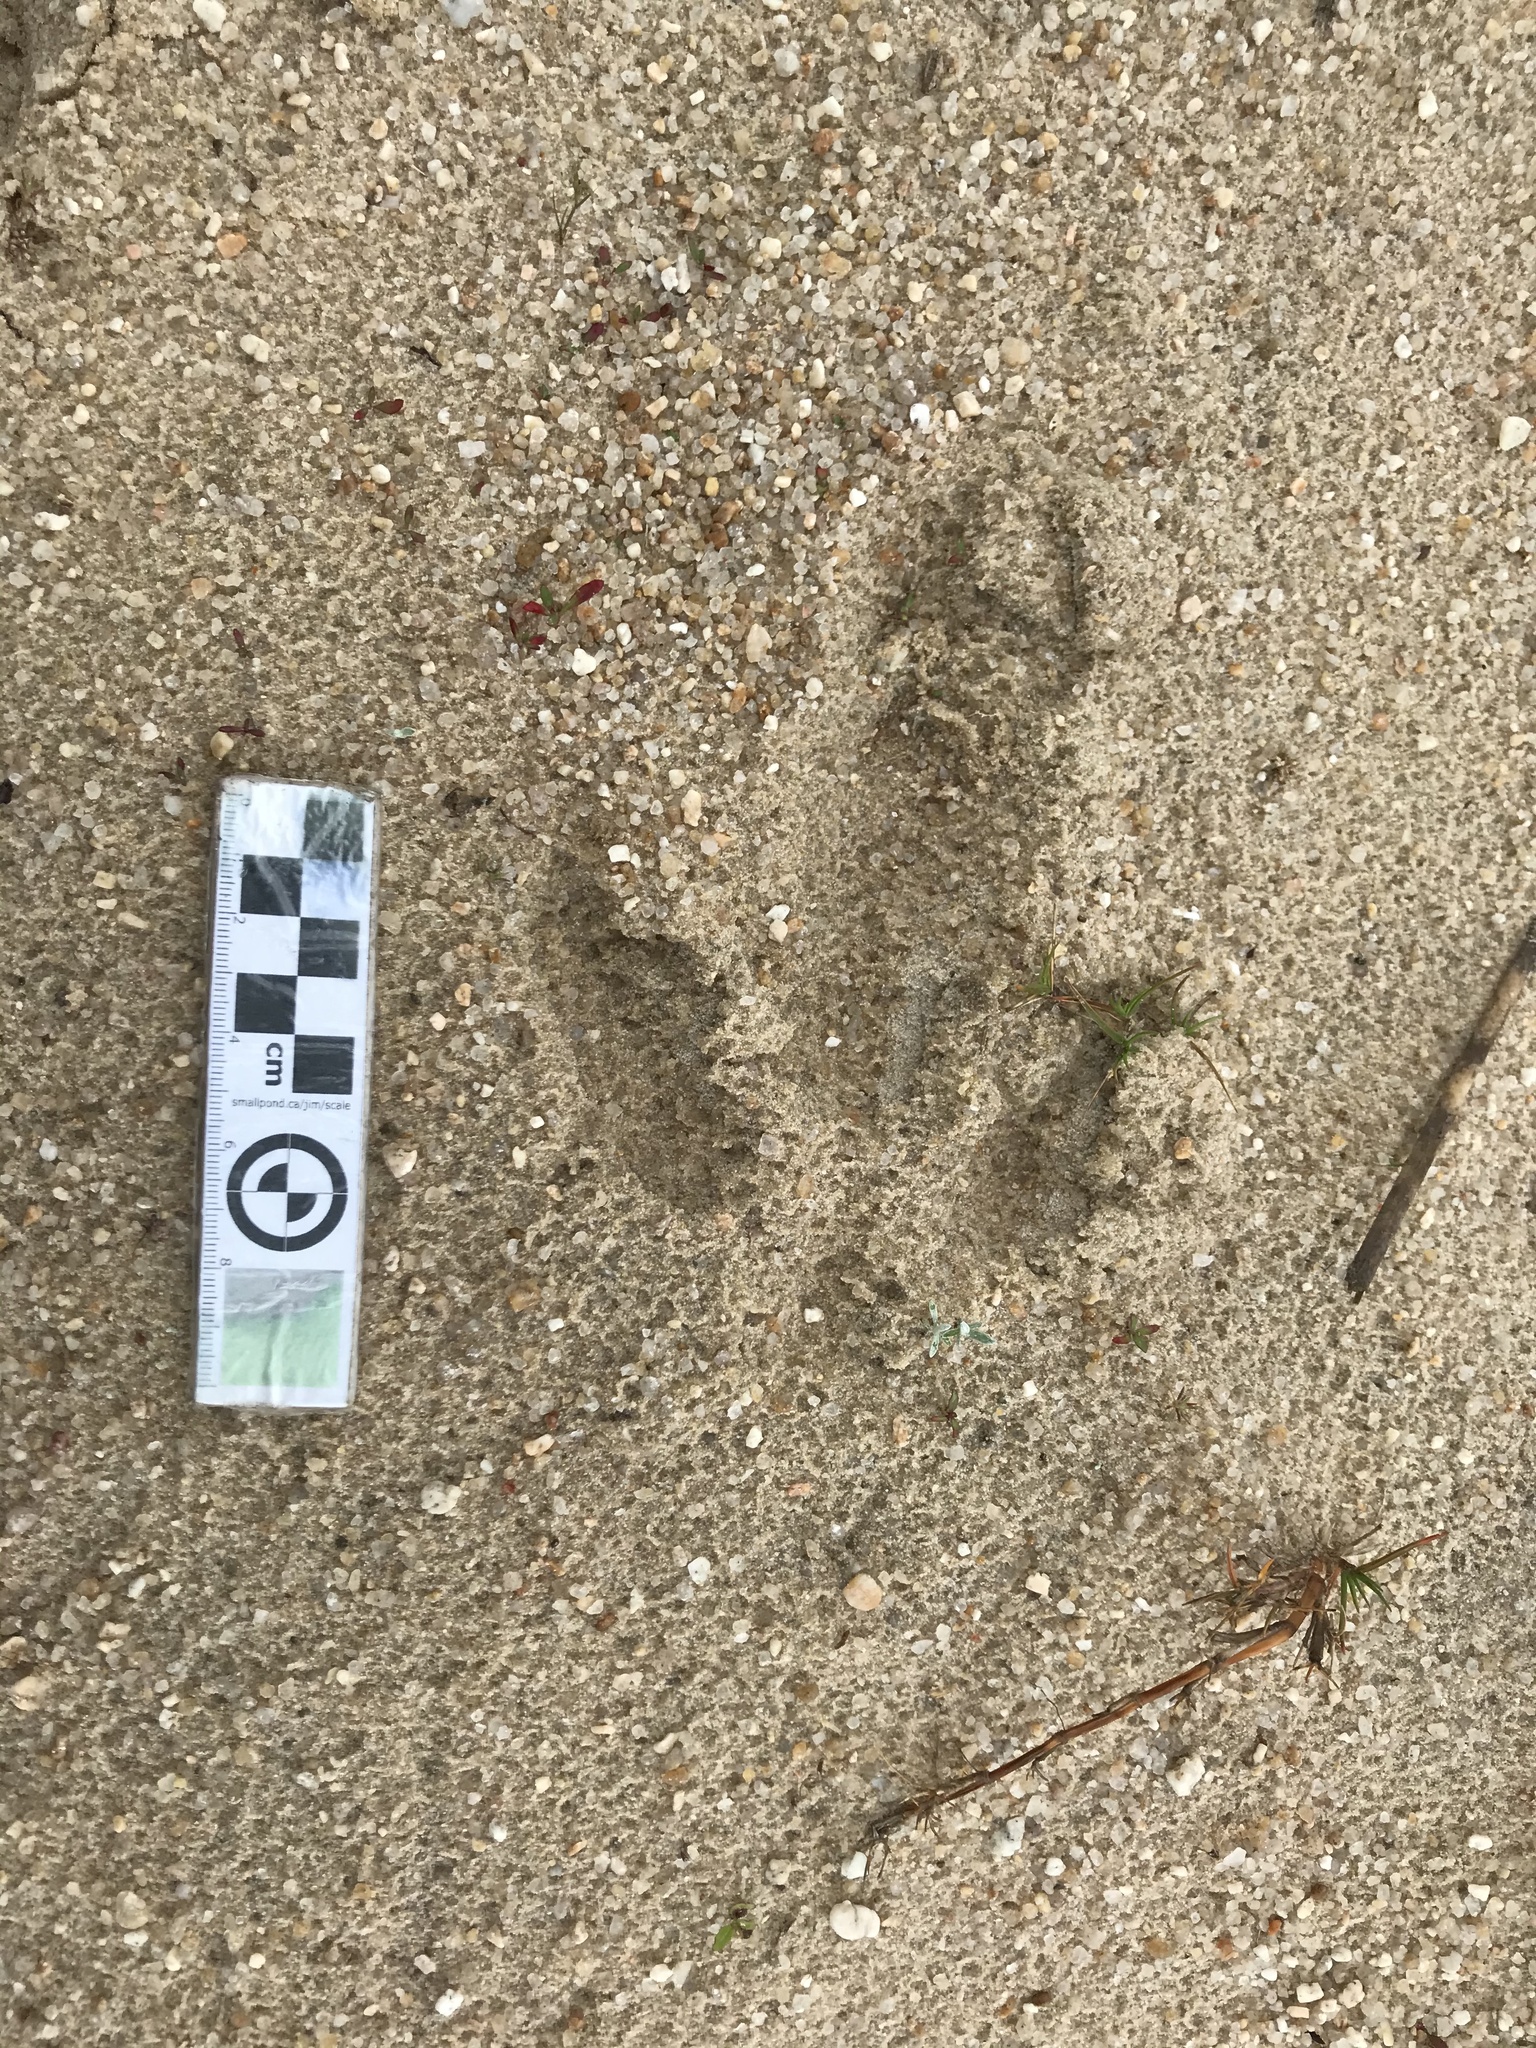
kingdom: Animalia
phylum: Chordata
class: Aves
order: Rheiformes
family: Rheidae
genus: Rhea
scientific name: Rhea americana
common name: Greater rhea
